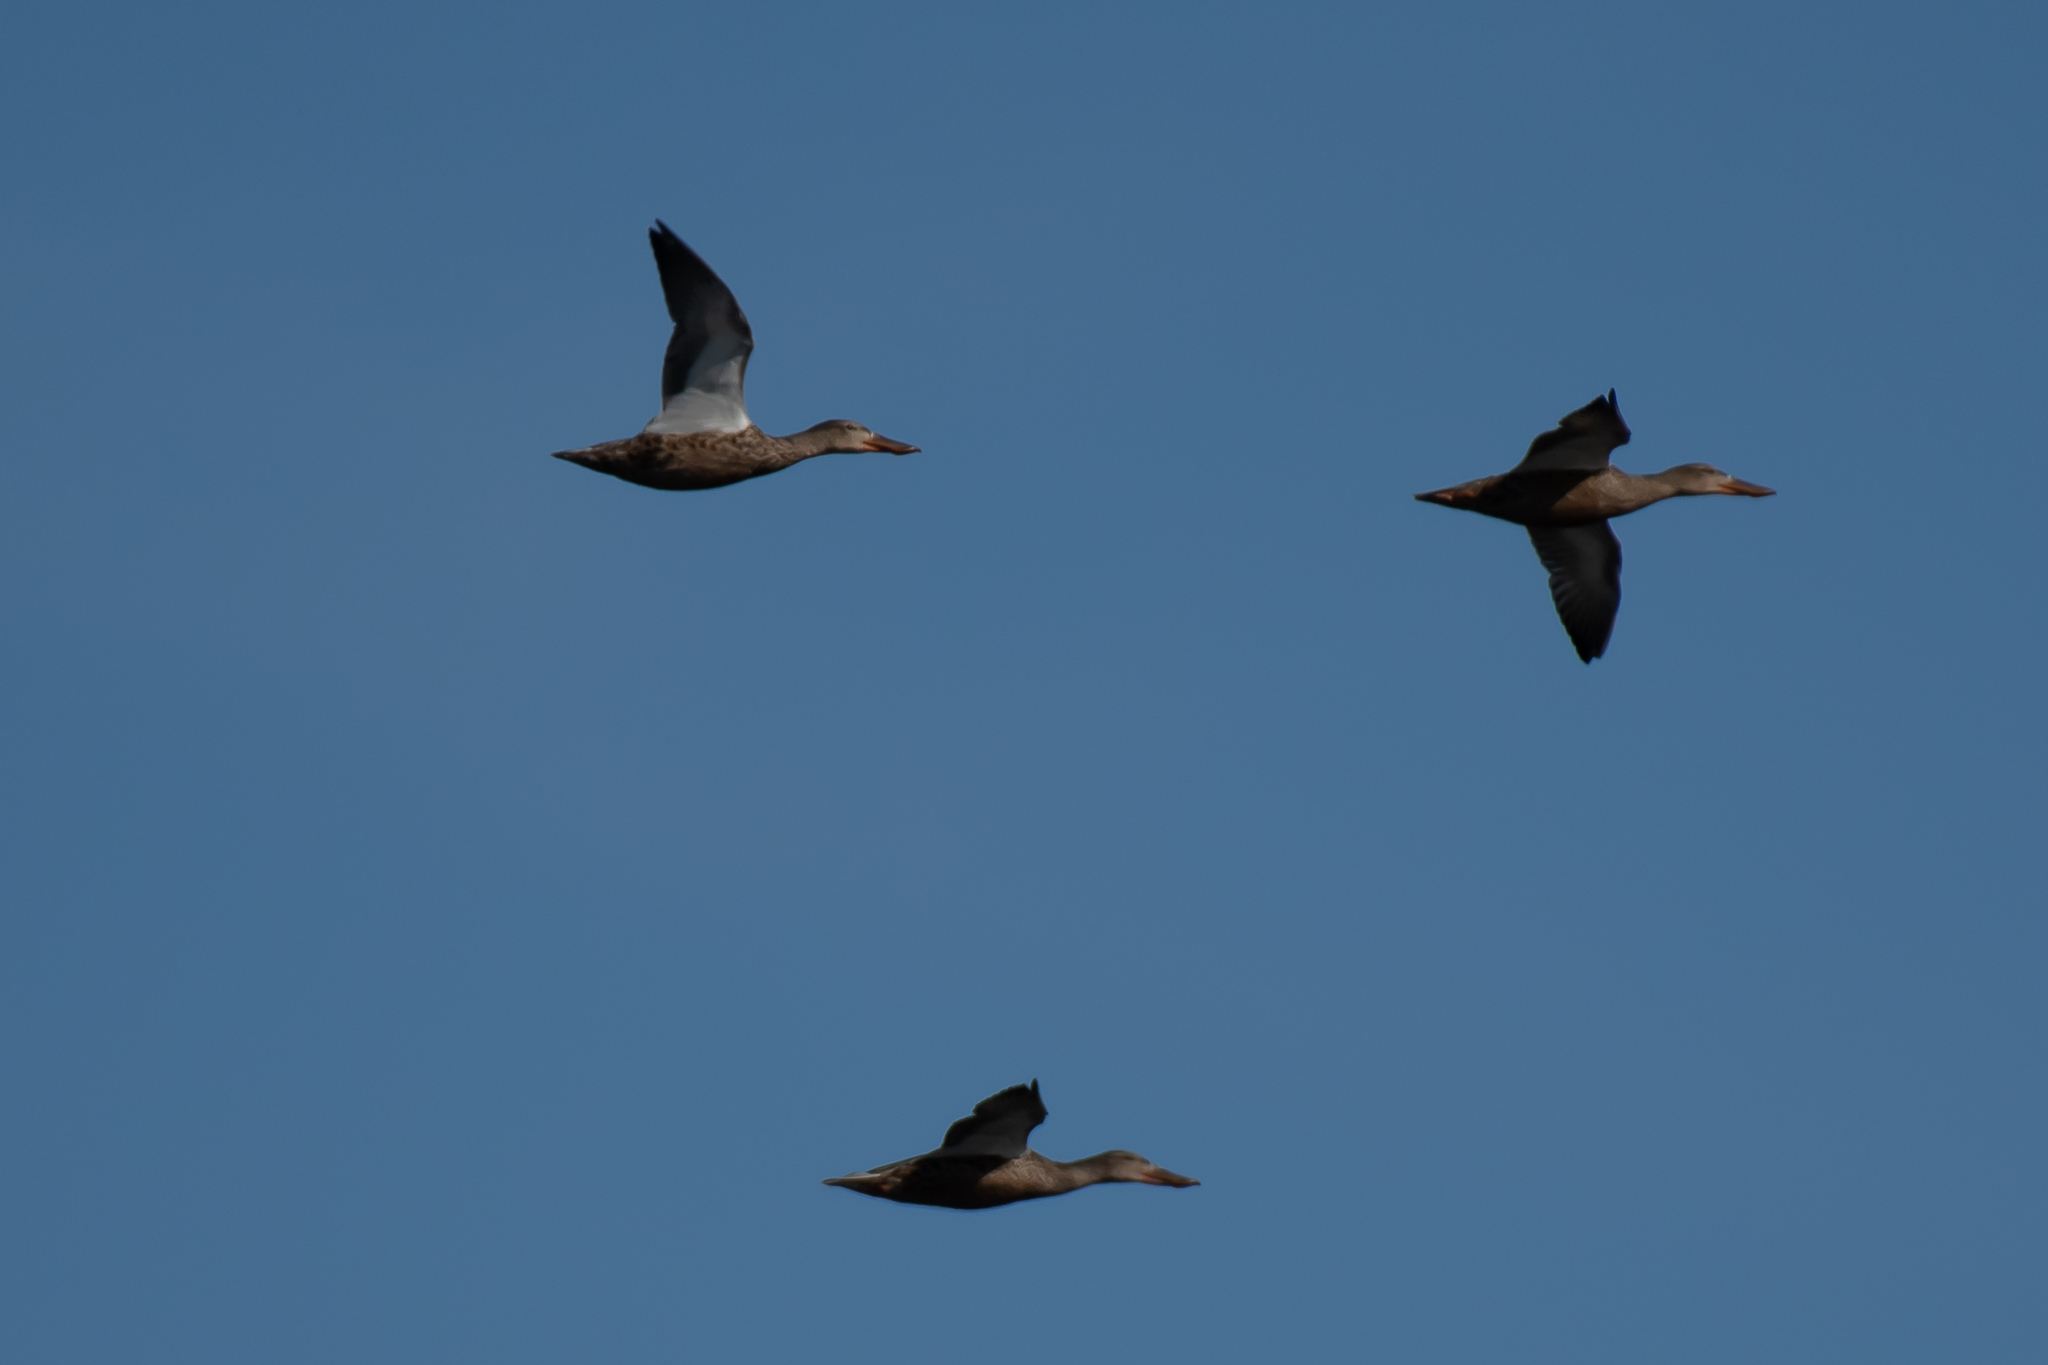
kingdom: Animalia
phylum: Chordata
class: Aves
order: Anseriformes
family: Anatidae
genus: Spatula
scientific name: Spatula clypeata
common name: Northern shoveler
